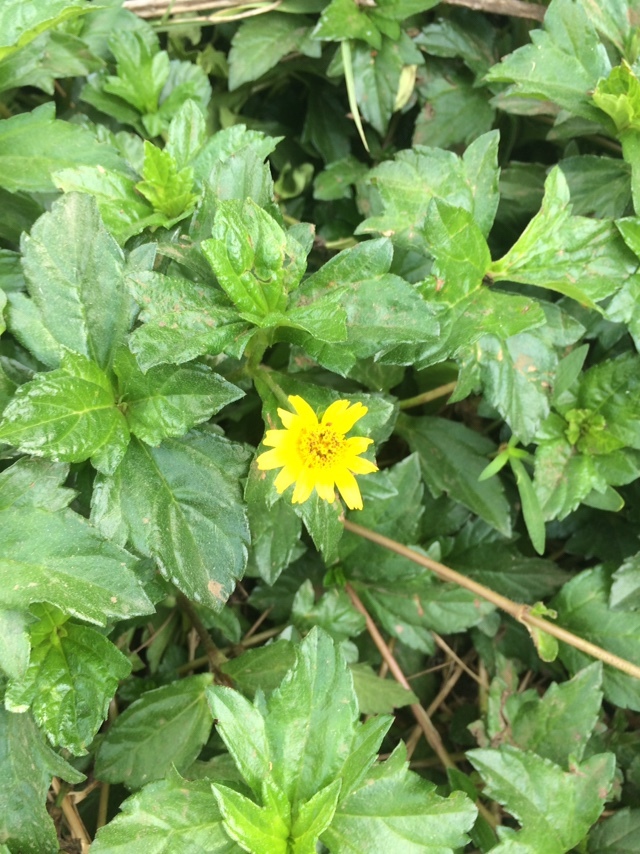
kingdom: Plantae
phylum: Tracheophyta
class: Magnoliopsida
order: Asterales
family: Asteraceae
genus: Sphagneticola
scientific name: Sphagneticola trilobata
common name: Bay biscayne creeping-oxeye
